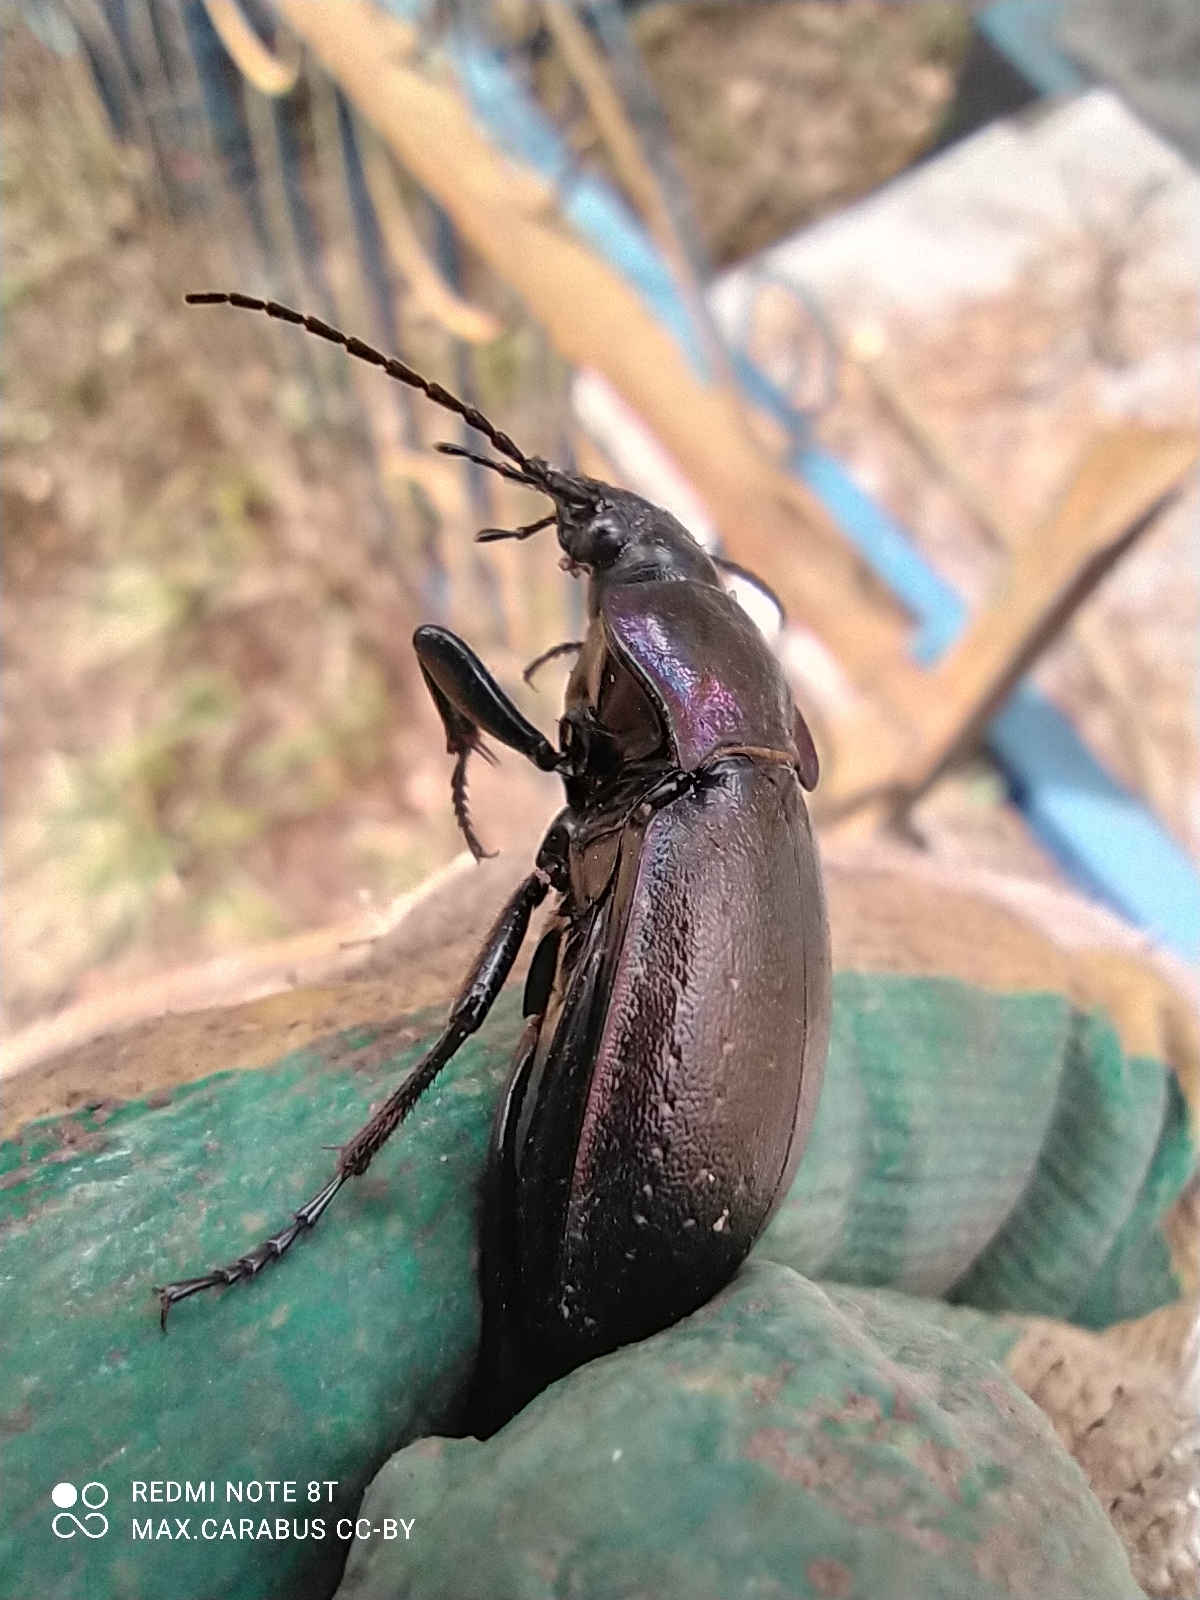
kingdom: Animalia
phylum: Arthropoda
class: Insecta
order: Coleoptera
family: Carabidae
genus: Carabus
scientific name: Carabus nemoralis
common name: European ground beetle
